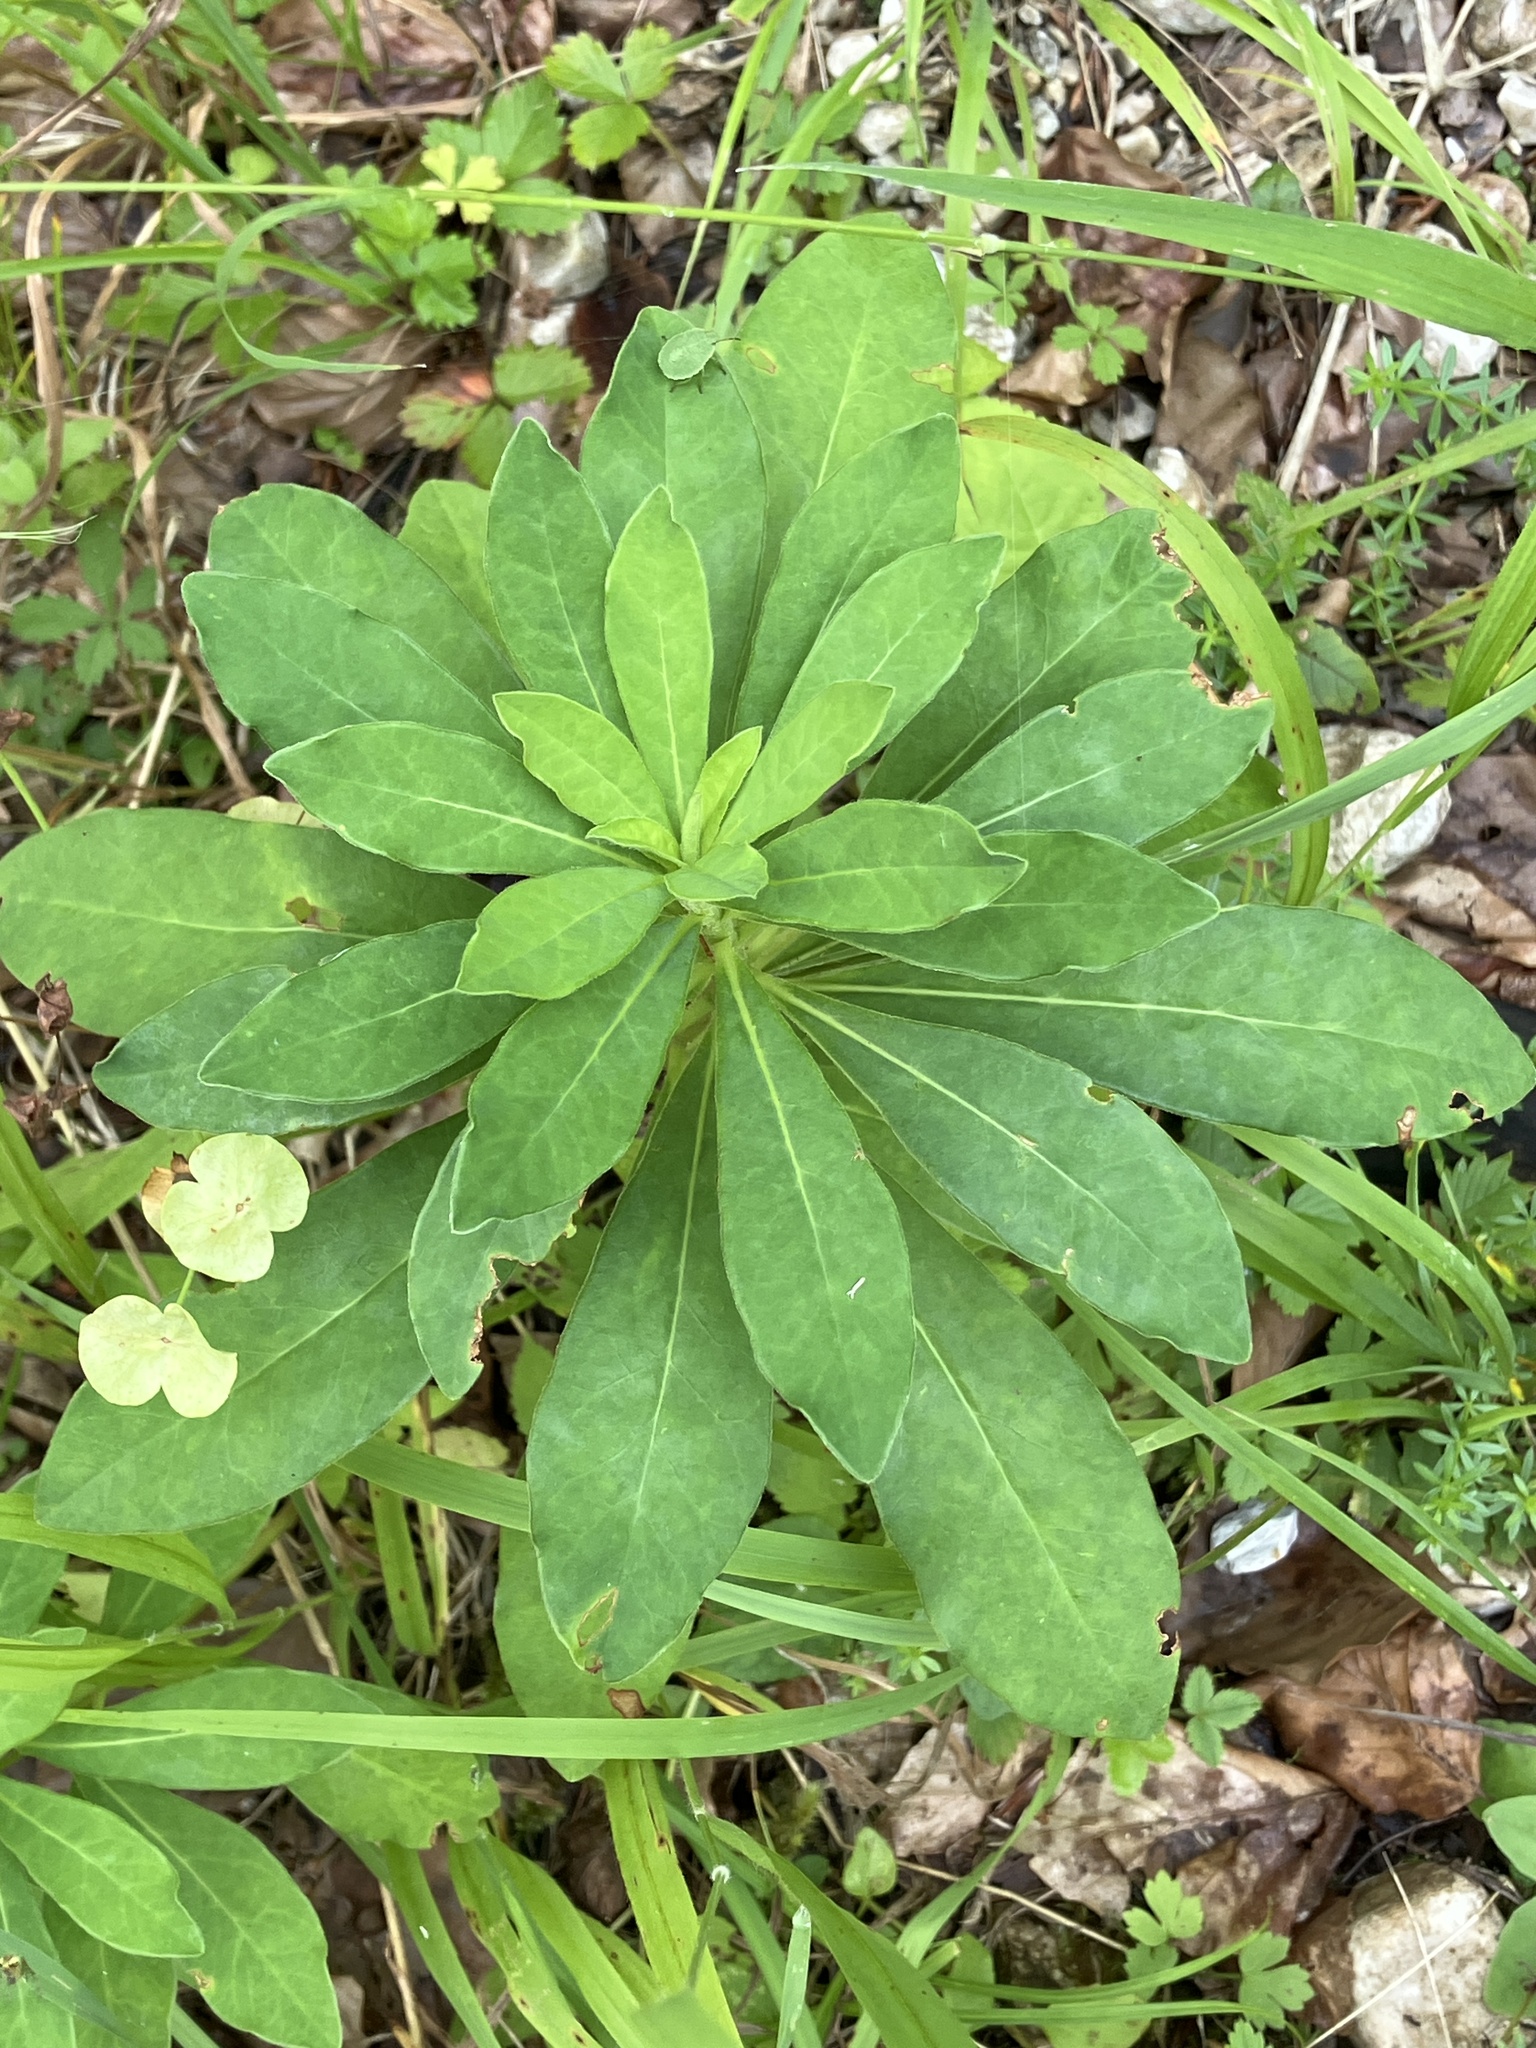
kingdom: Plantae
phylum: Tracheophyta
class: Magnoliopsida
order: Malpighiales
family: Euphorbiaceae
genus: Euphorbia
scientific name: Euphorbia amygdaloides
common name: Wood spurge
